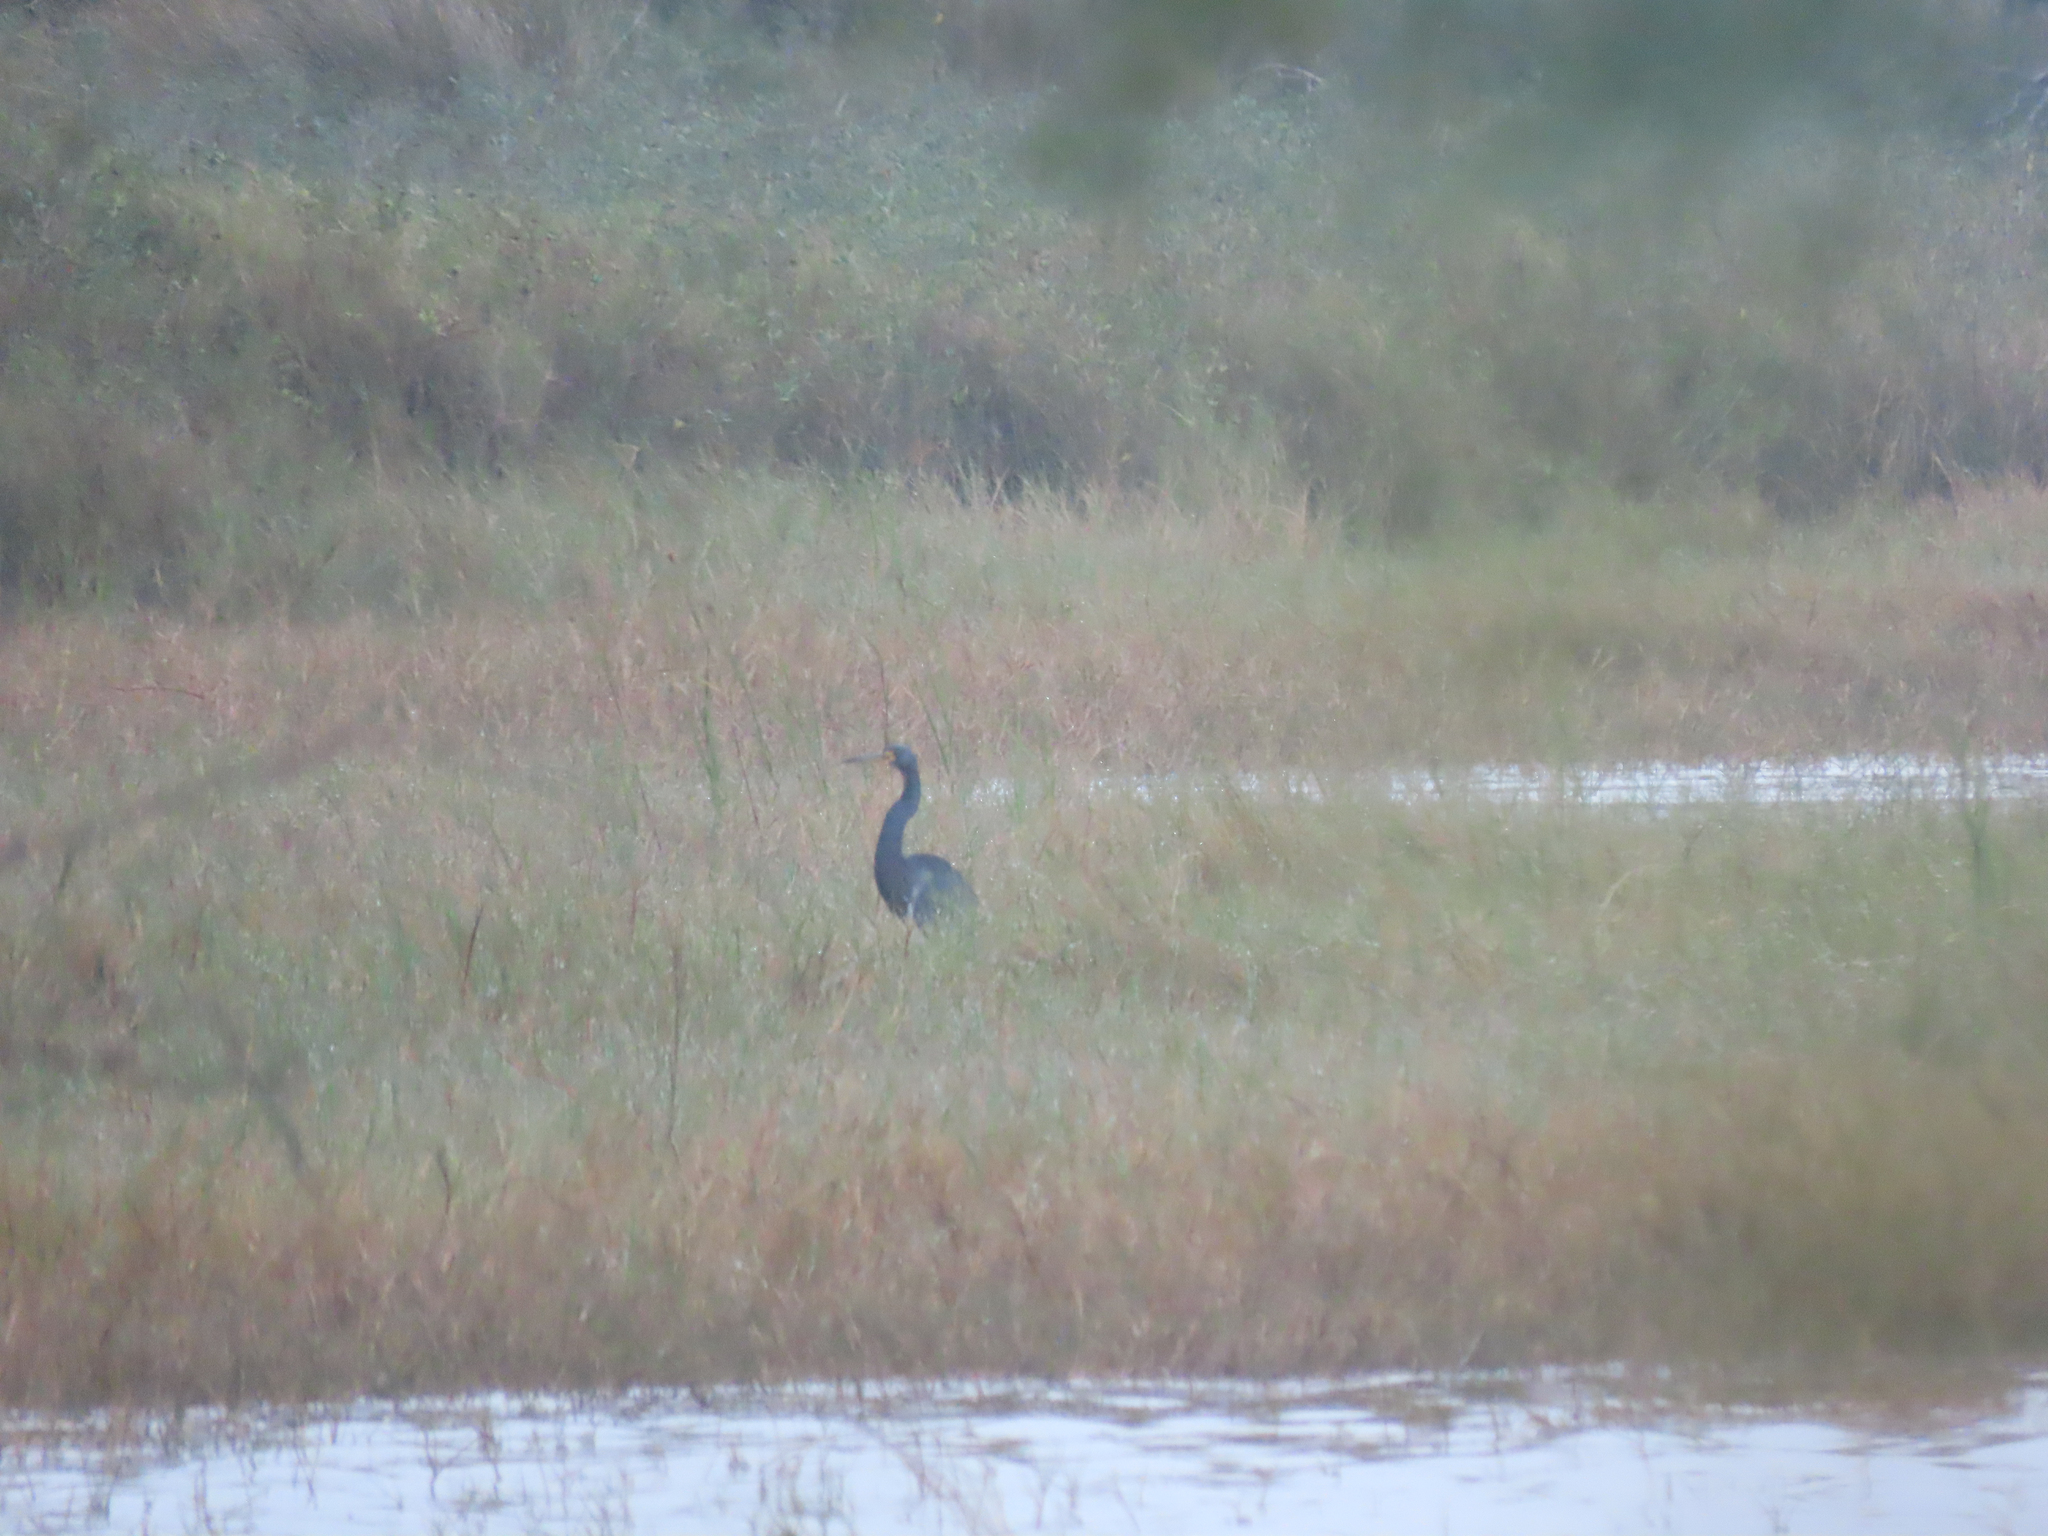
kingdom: Animalia
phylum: Chordata
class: Aves
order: Pelecaniformes
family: Ardeidae
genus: Egretta
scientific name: Egretta tricolor
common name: Tricolored heron
